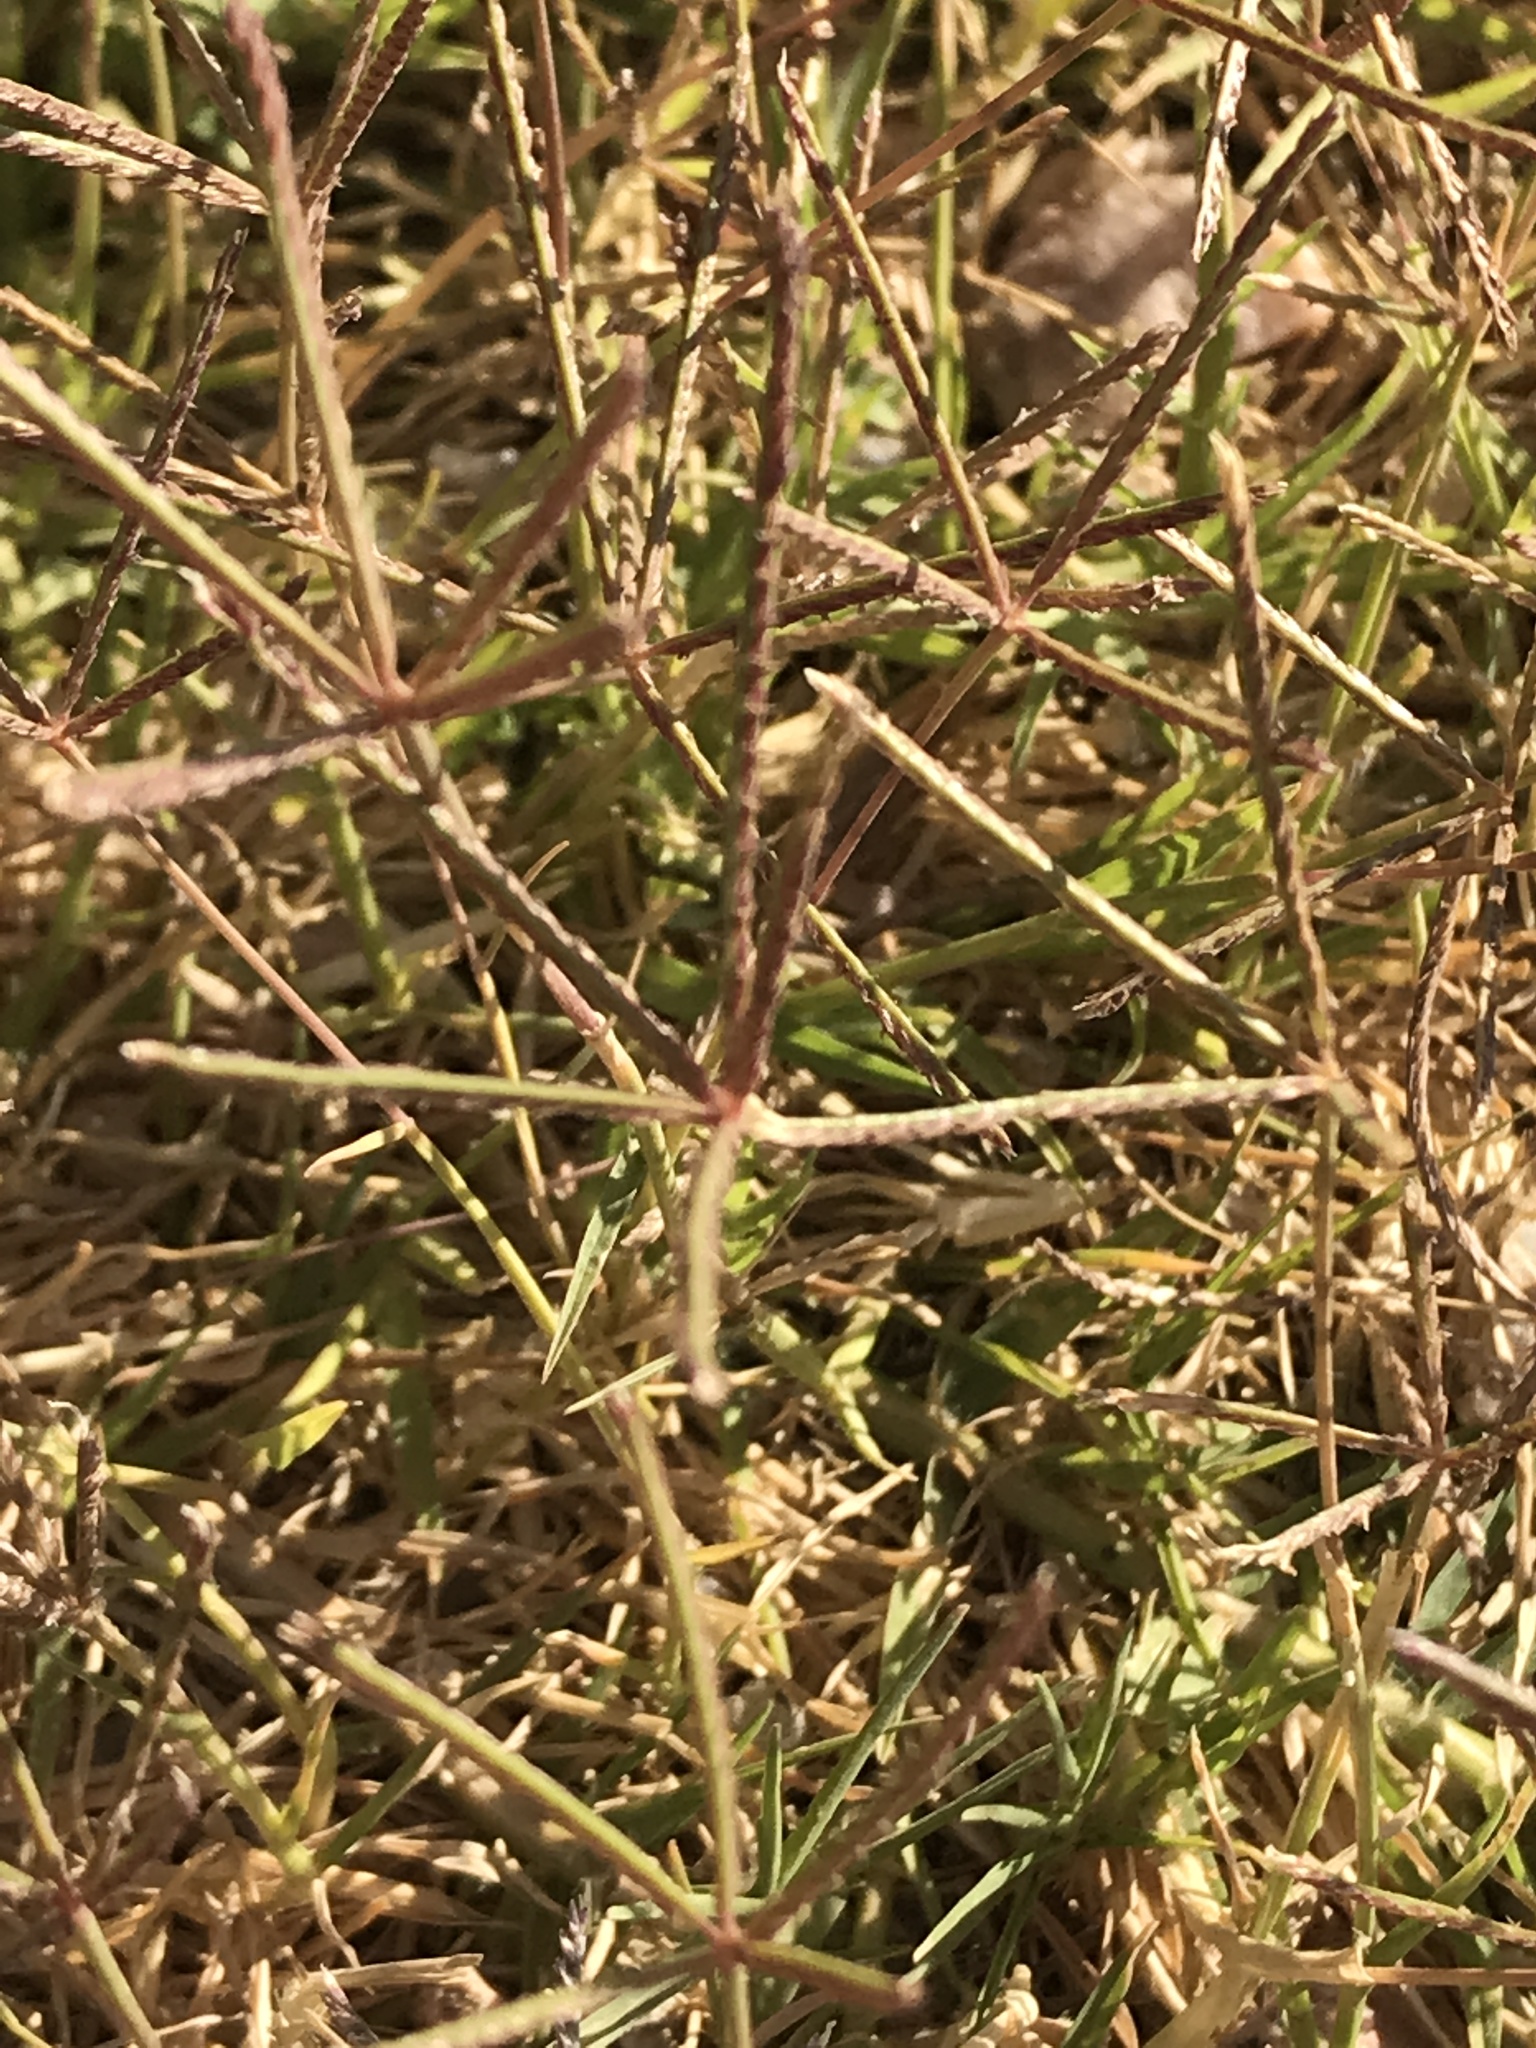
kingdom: Plantae
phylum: Tracheophyta
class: Liliopsida
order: Poales
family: Poaceae
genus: Cynodon
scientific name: Cynodon dactylon
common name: Bermuda grass
